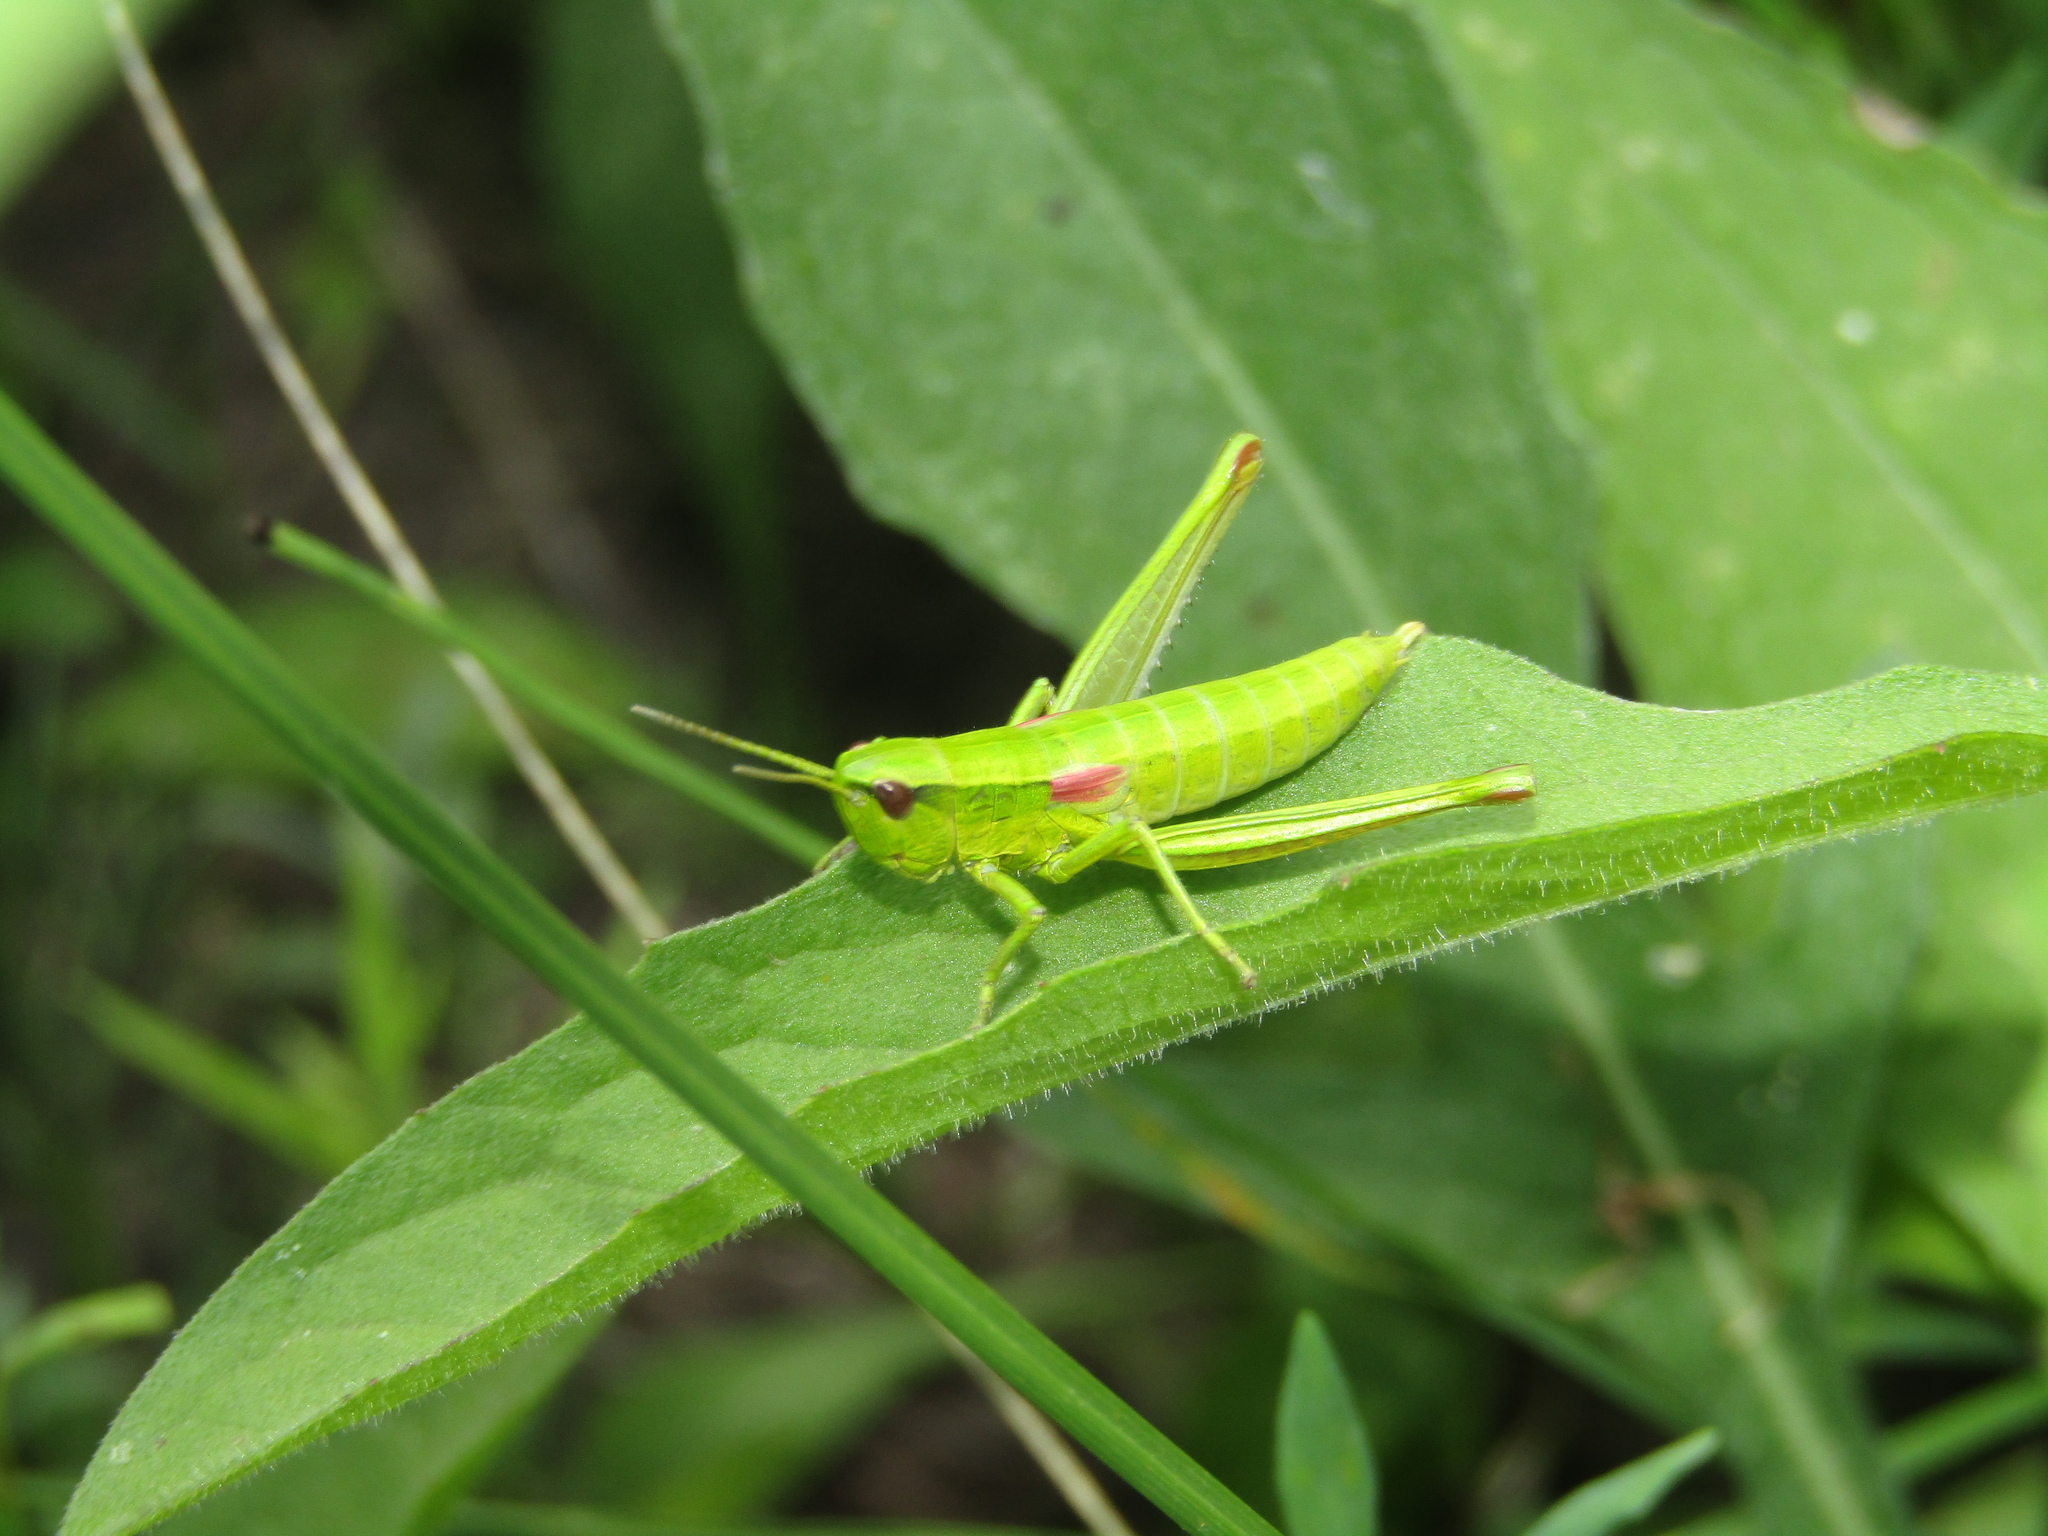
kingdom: Animalia
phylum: Arthropoda
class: Insecta
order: Orthoptera
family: Acrididae
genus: Euthystira
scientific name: Euthystira brachyptera
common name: Small gold grasshopper
